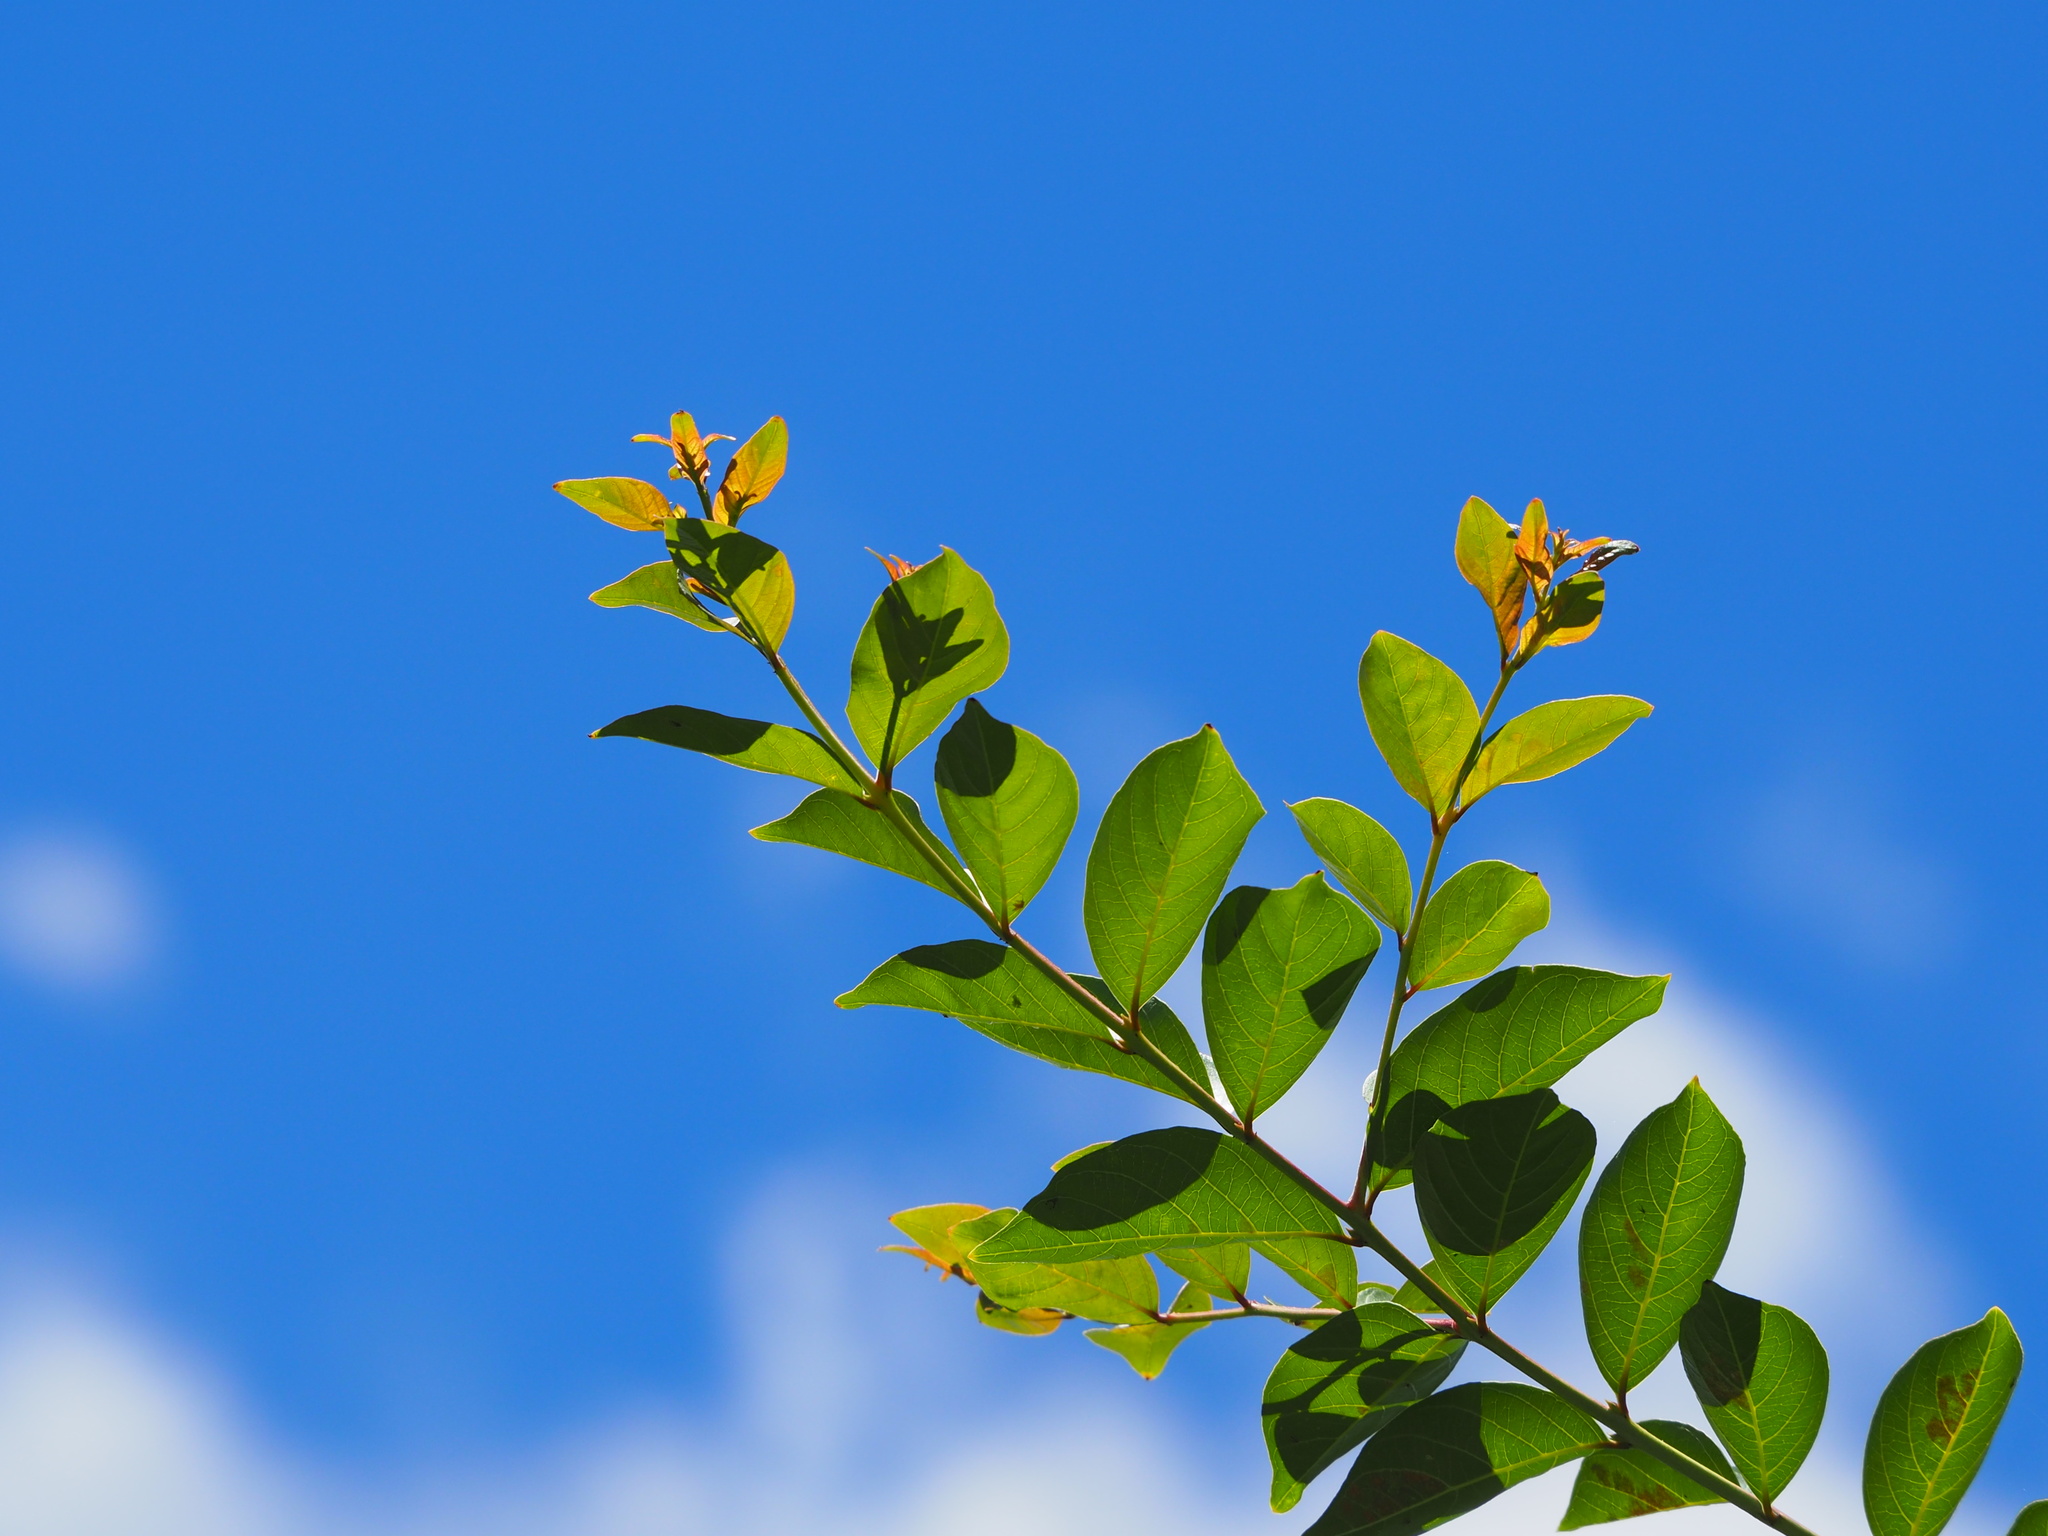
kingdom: Plantae
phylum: Tracheophyta
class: Magnoliopsida
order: Myrtales
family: Lythraceae
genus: Lagerstroemia
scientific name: Lagerstroemia subcostata
